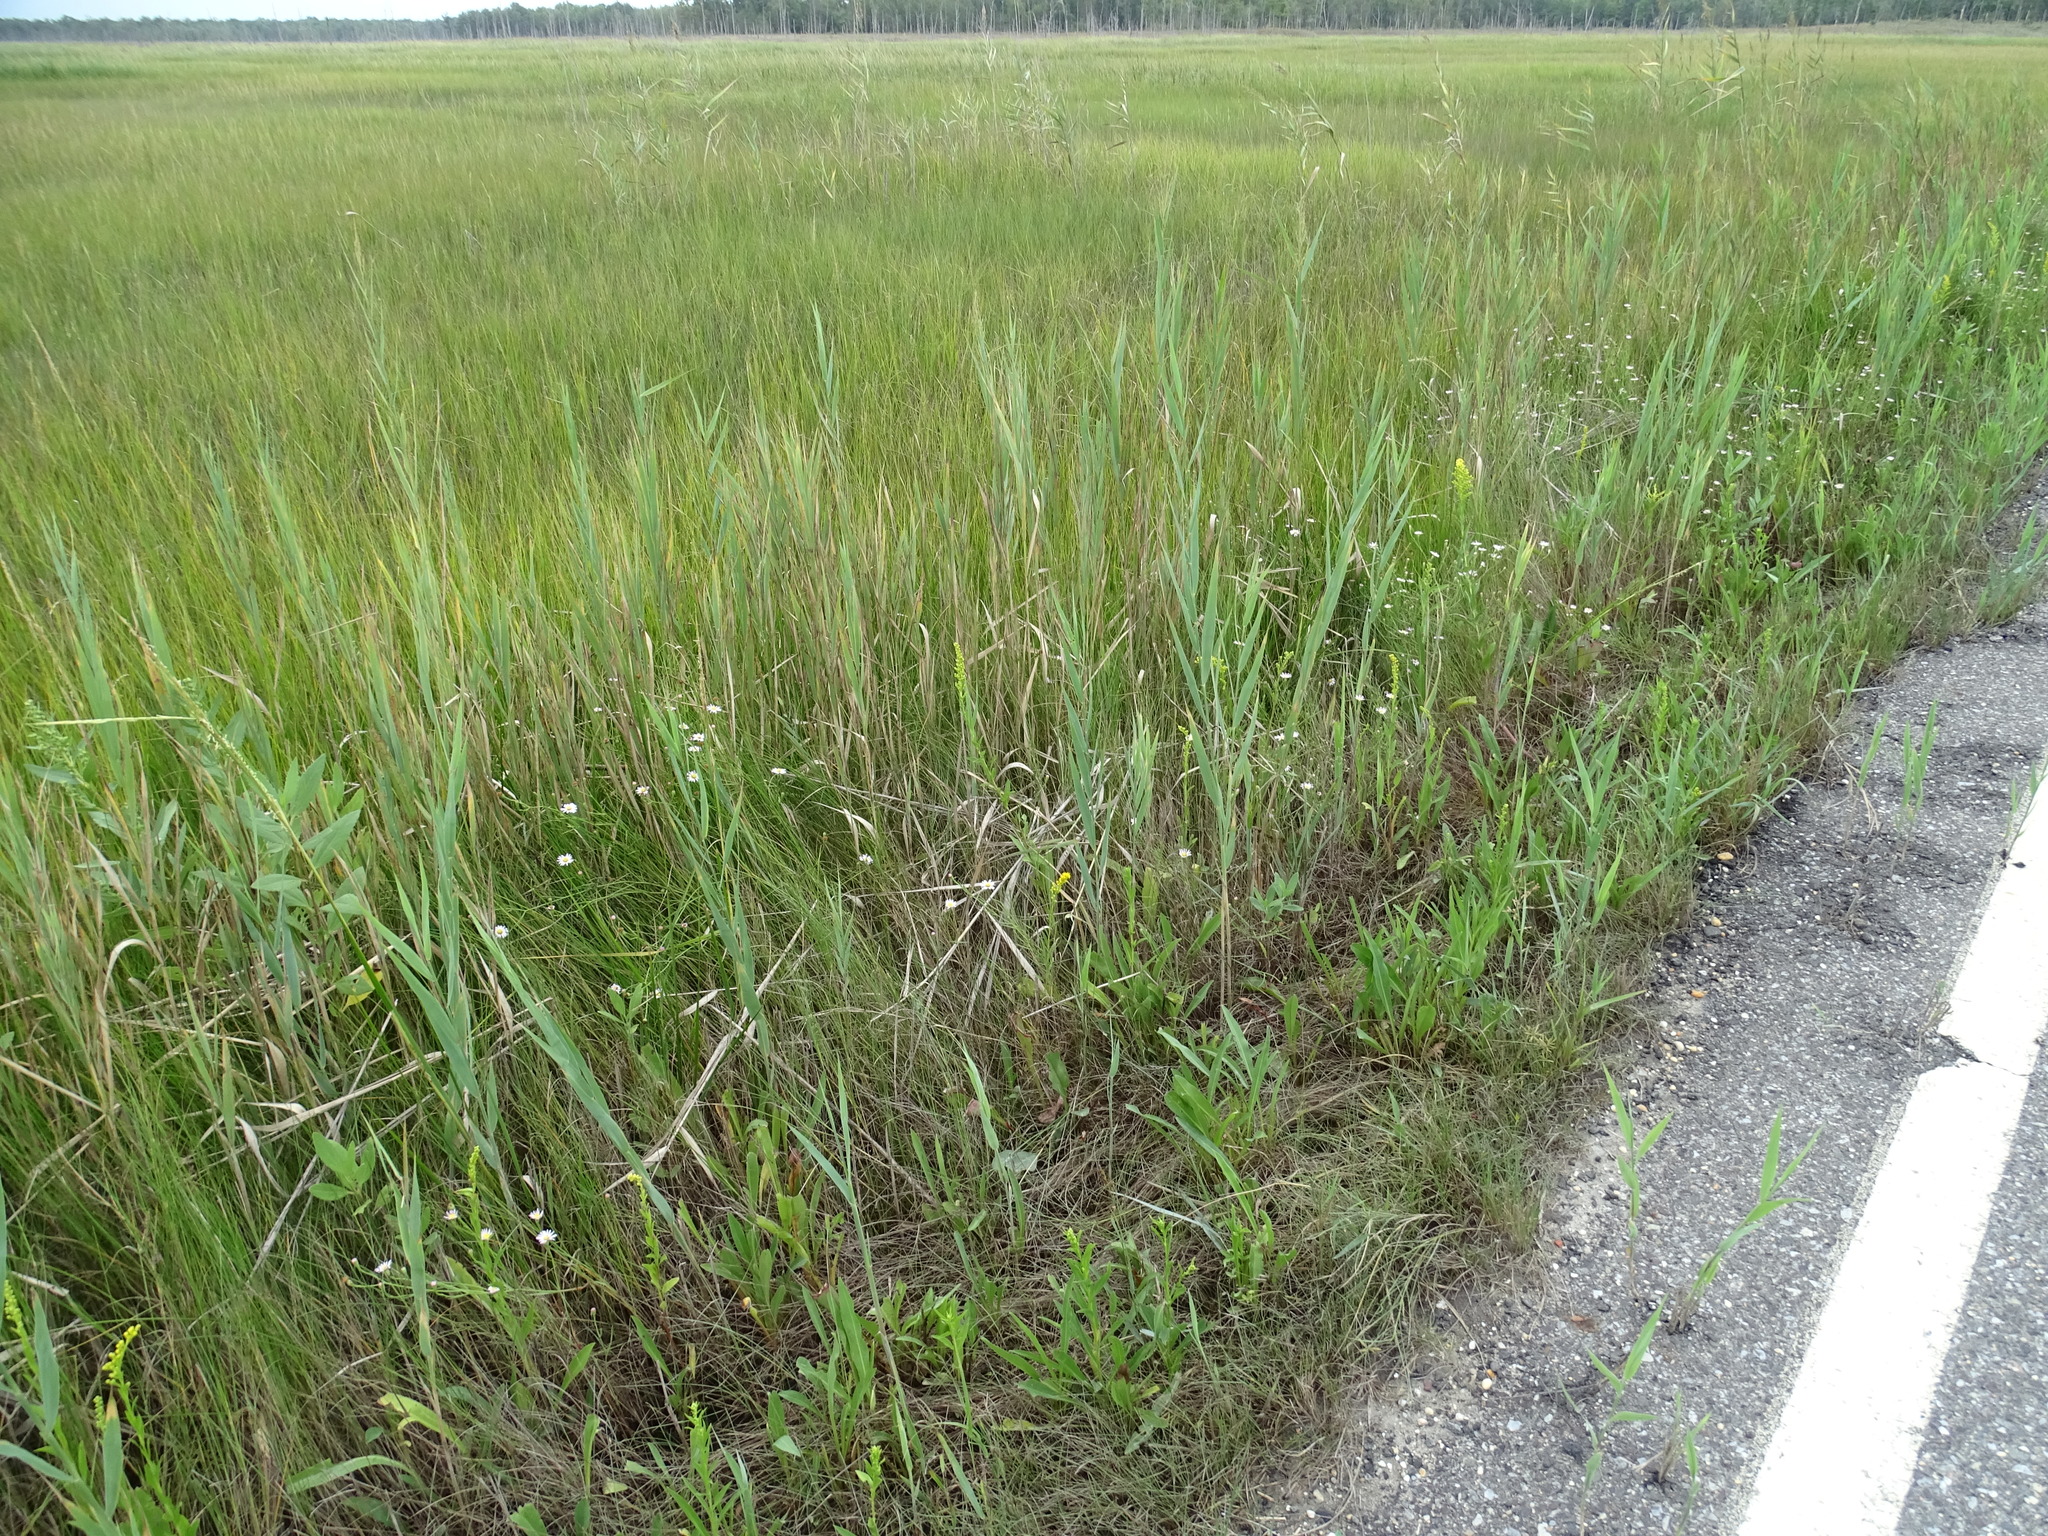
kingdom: Plantae
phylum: Tracheophyta
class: Magnoliopsida
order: Asterales
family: Asteraceae
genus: Symphyotrichum
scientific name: Symphyotrichum tenuifolium
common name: Perennial salt-marsh aster
